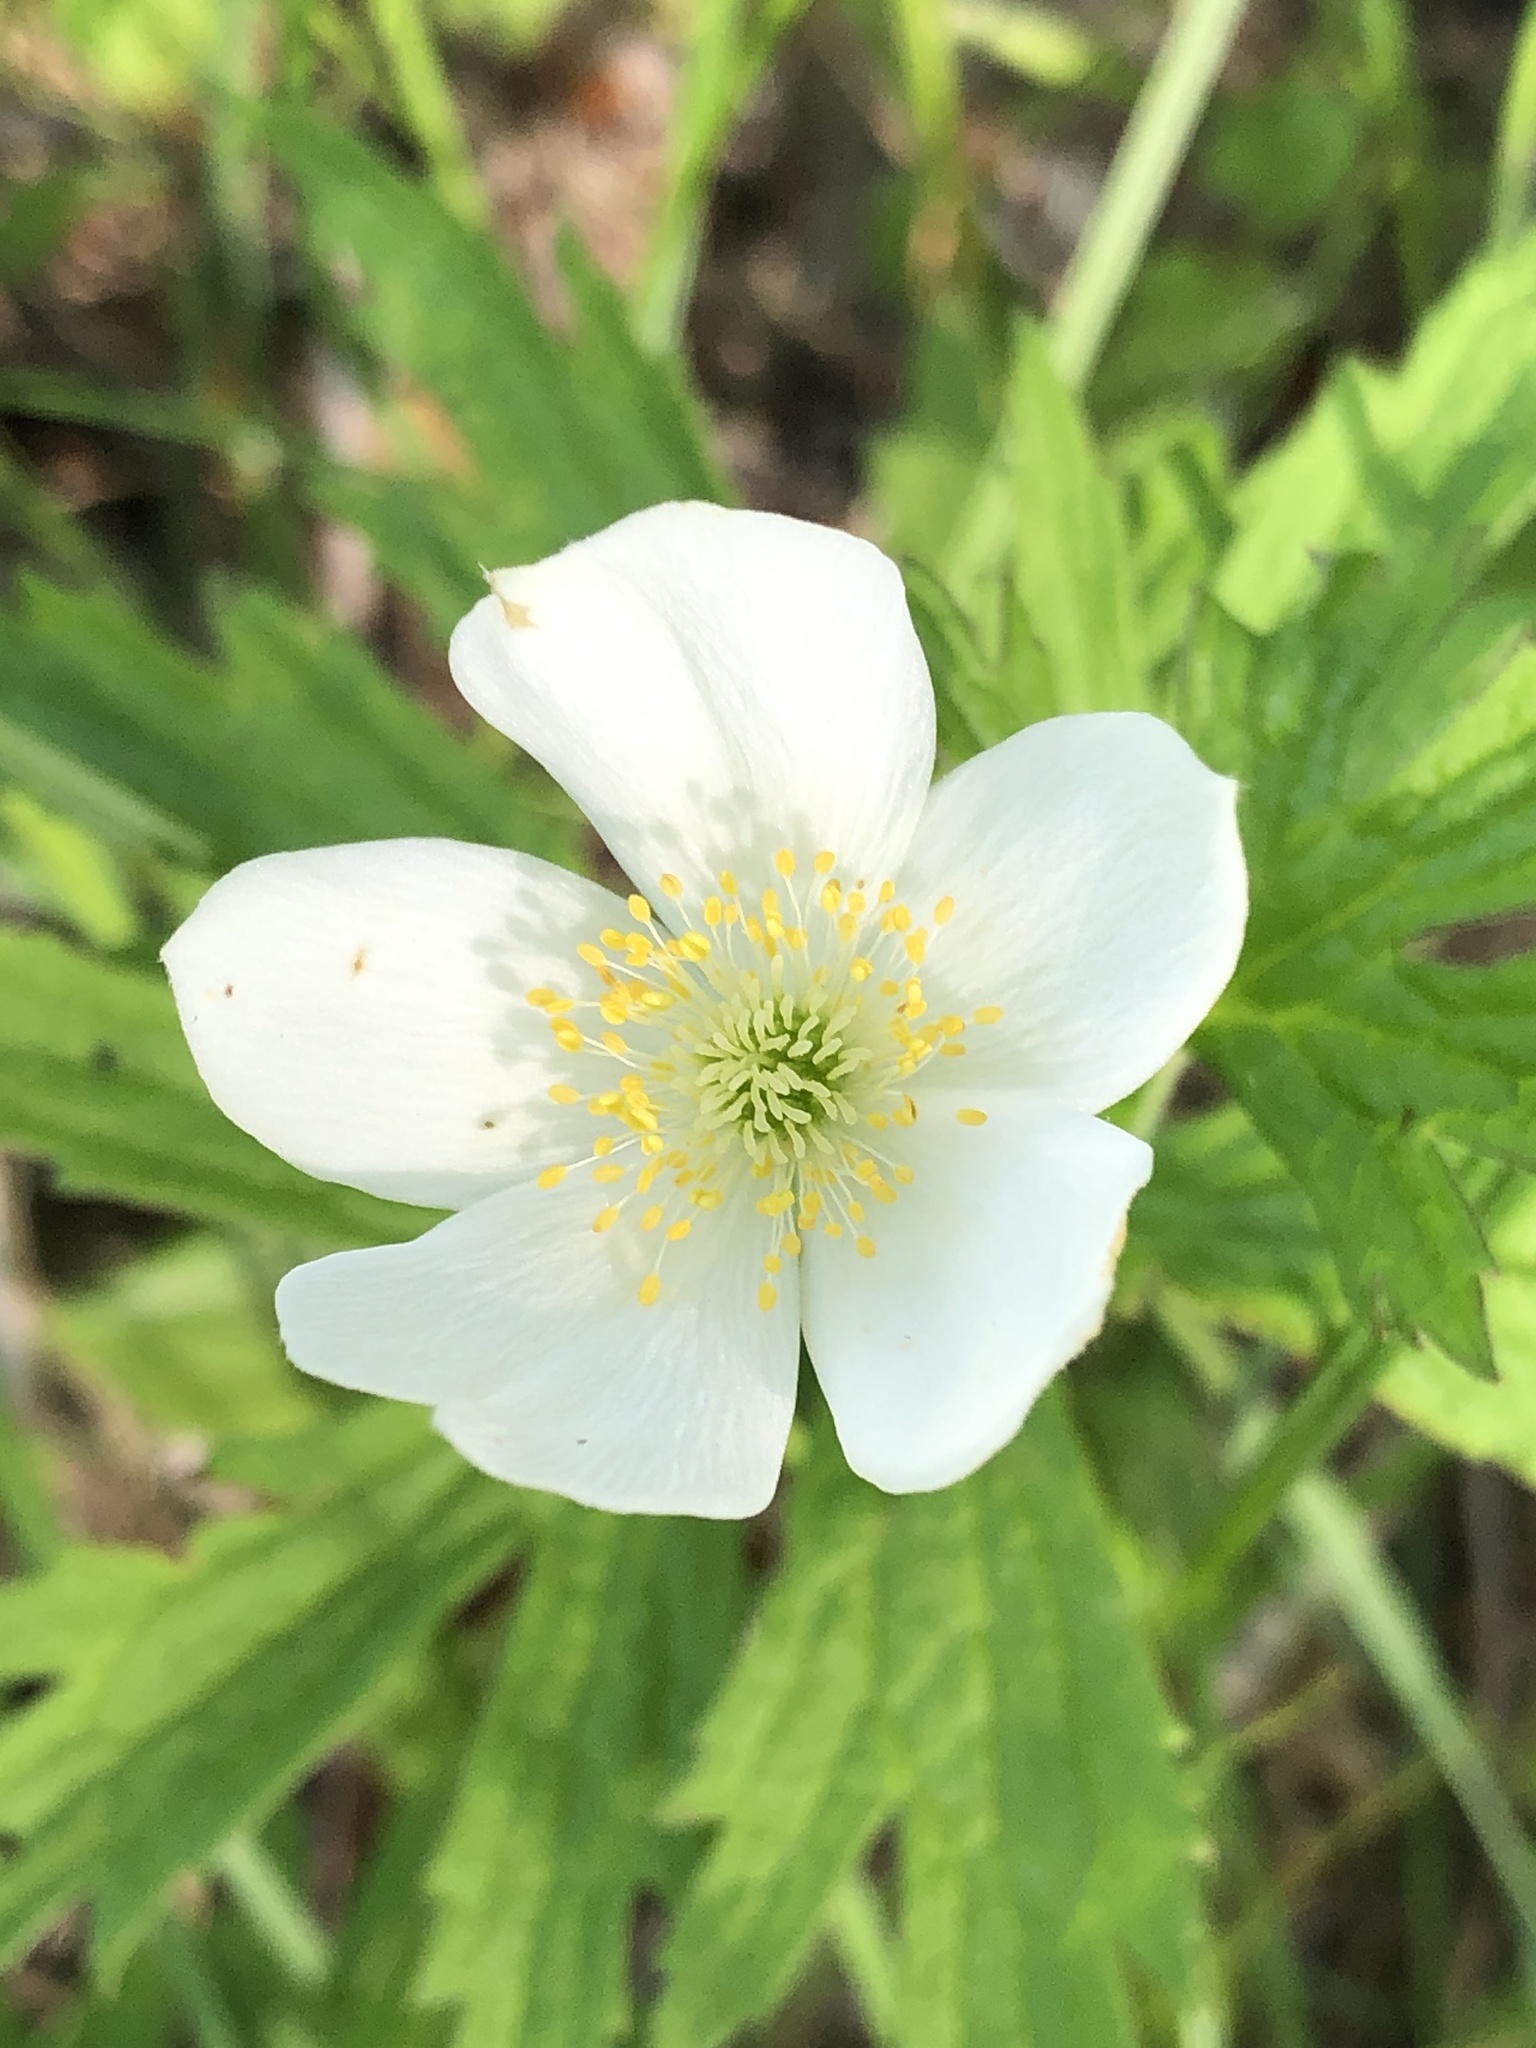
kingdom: Plantae
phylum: Tracheophyta
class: Magnoliopsida
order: Ranunculales
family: Ranunculaceae
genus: Anemonastrum
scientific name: Anemonastrum canadense
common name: Canada anemone
